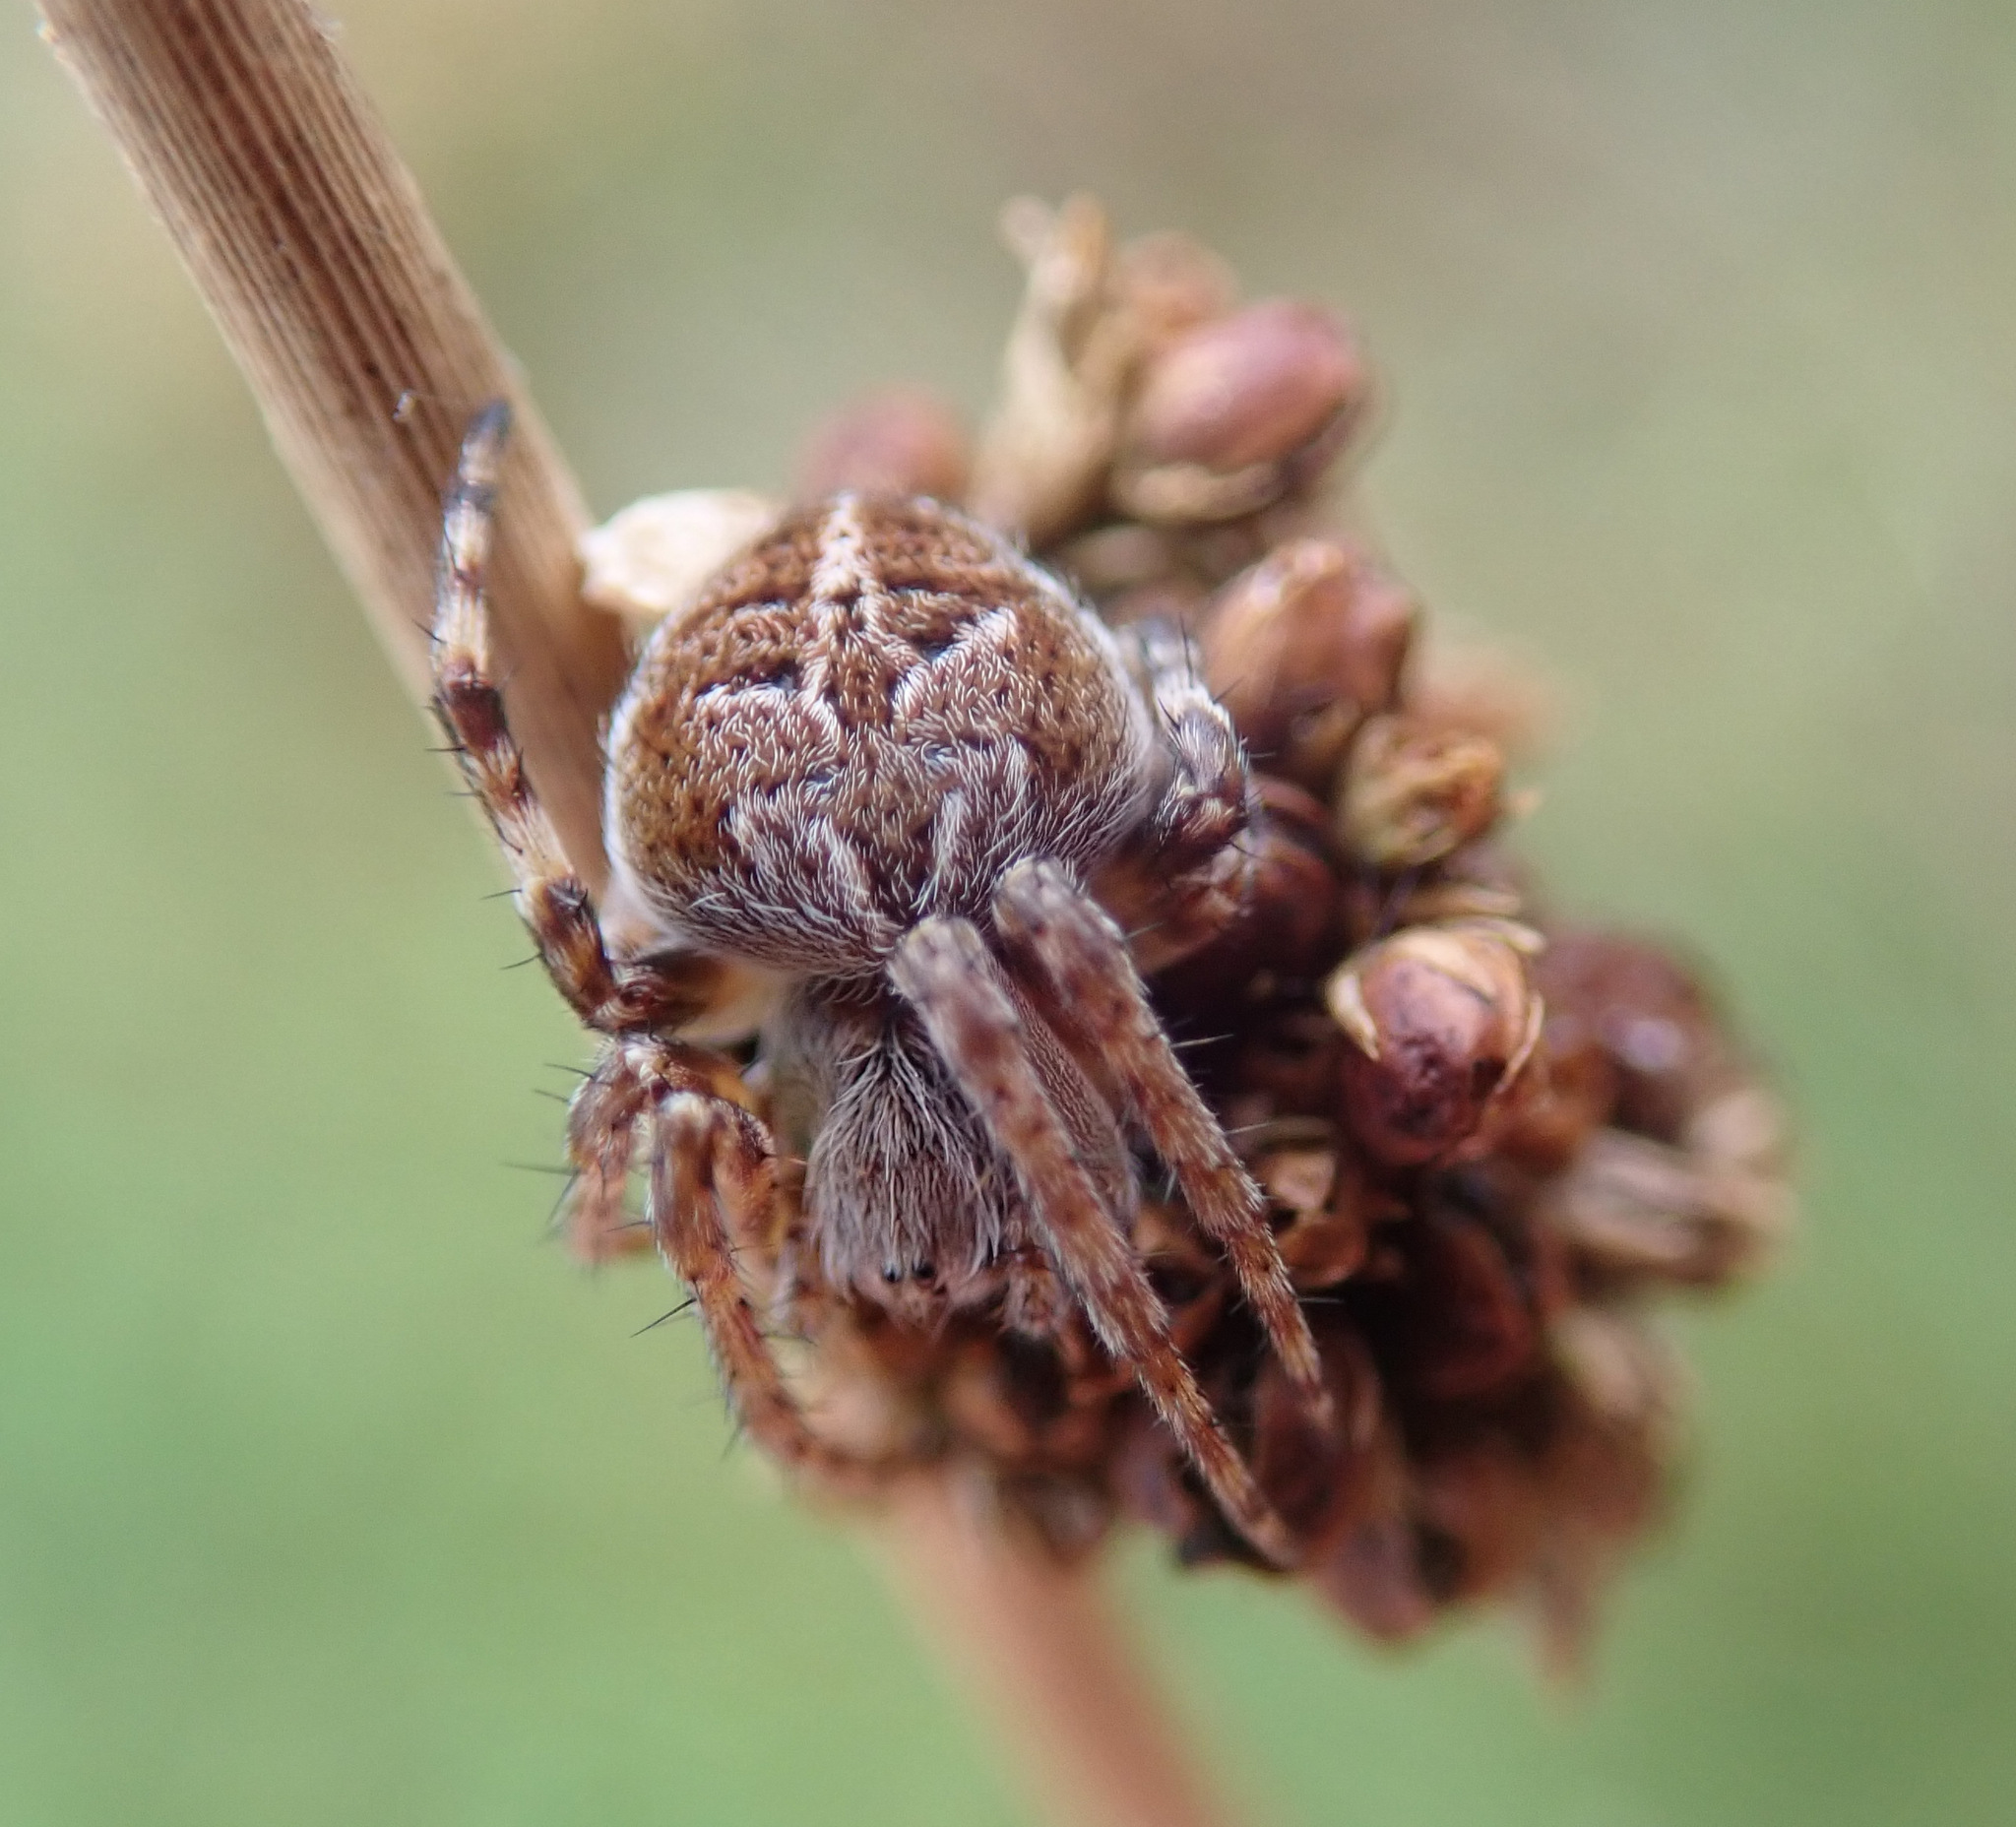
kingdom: Animalia
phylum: Arthropoda
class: Arachnida
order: Araneae
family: Araneidae
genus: Agalenatea
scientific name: Agalenatea redii
